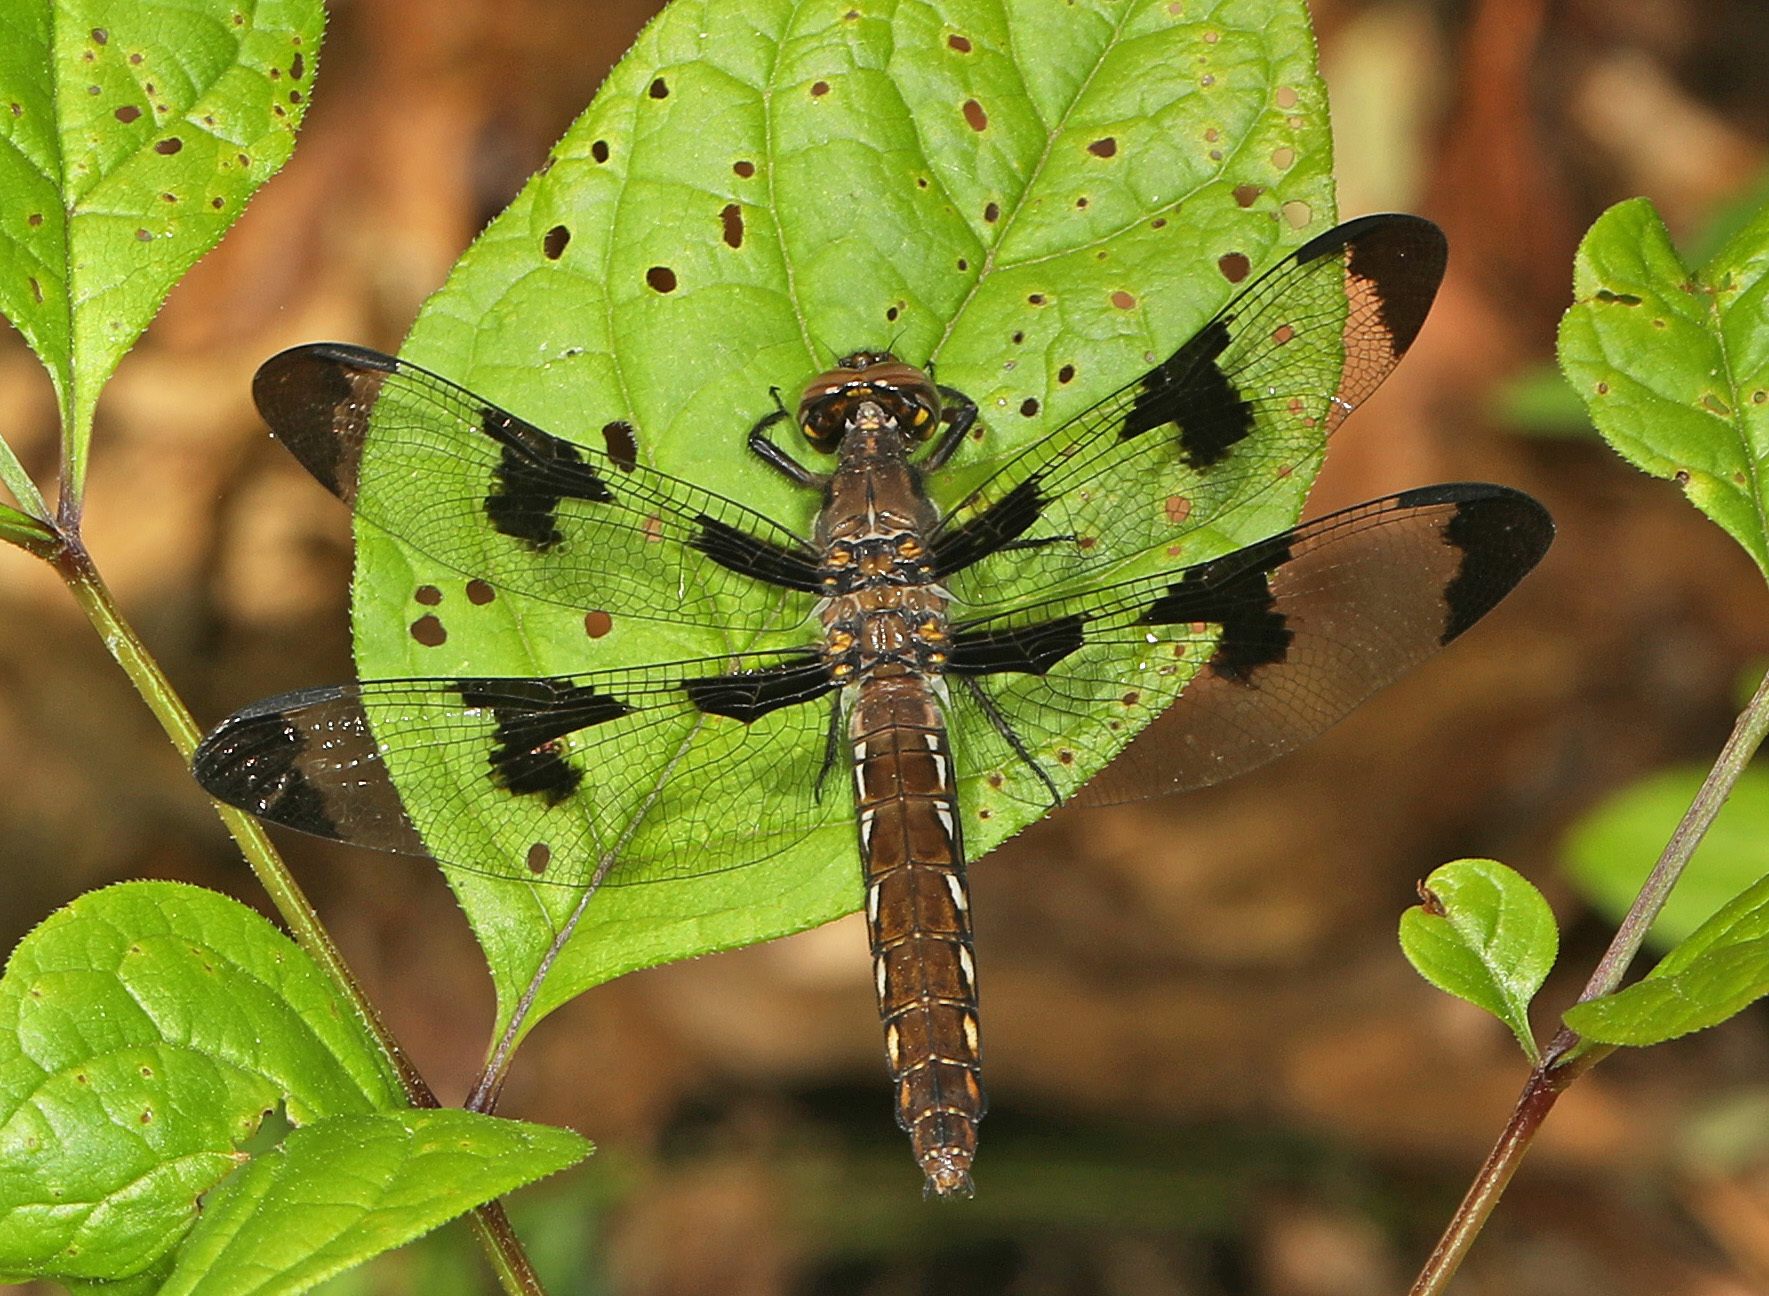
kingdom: Animalia
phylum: Arthropoda
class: Insecta
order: Odonata
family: Libellulidae
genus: Plathemis
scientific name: Plathemis lydia
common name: Common whitetail
